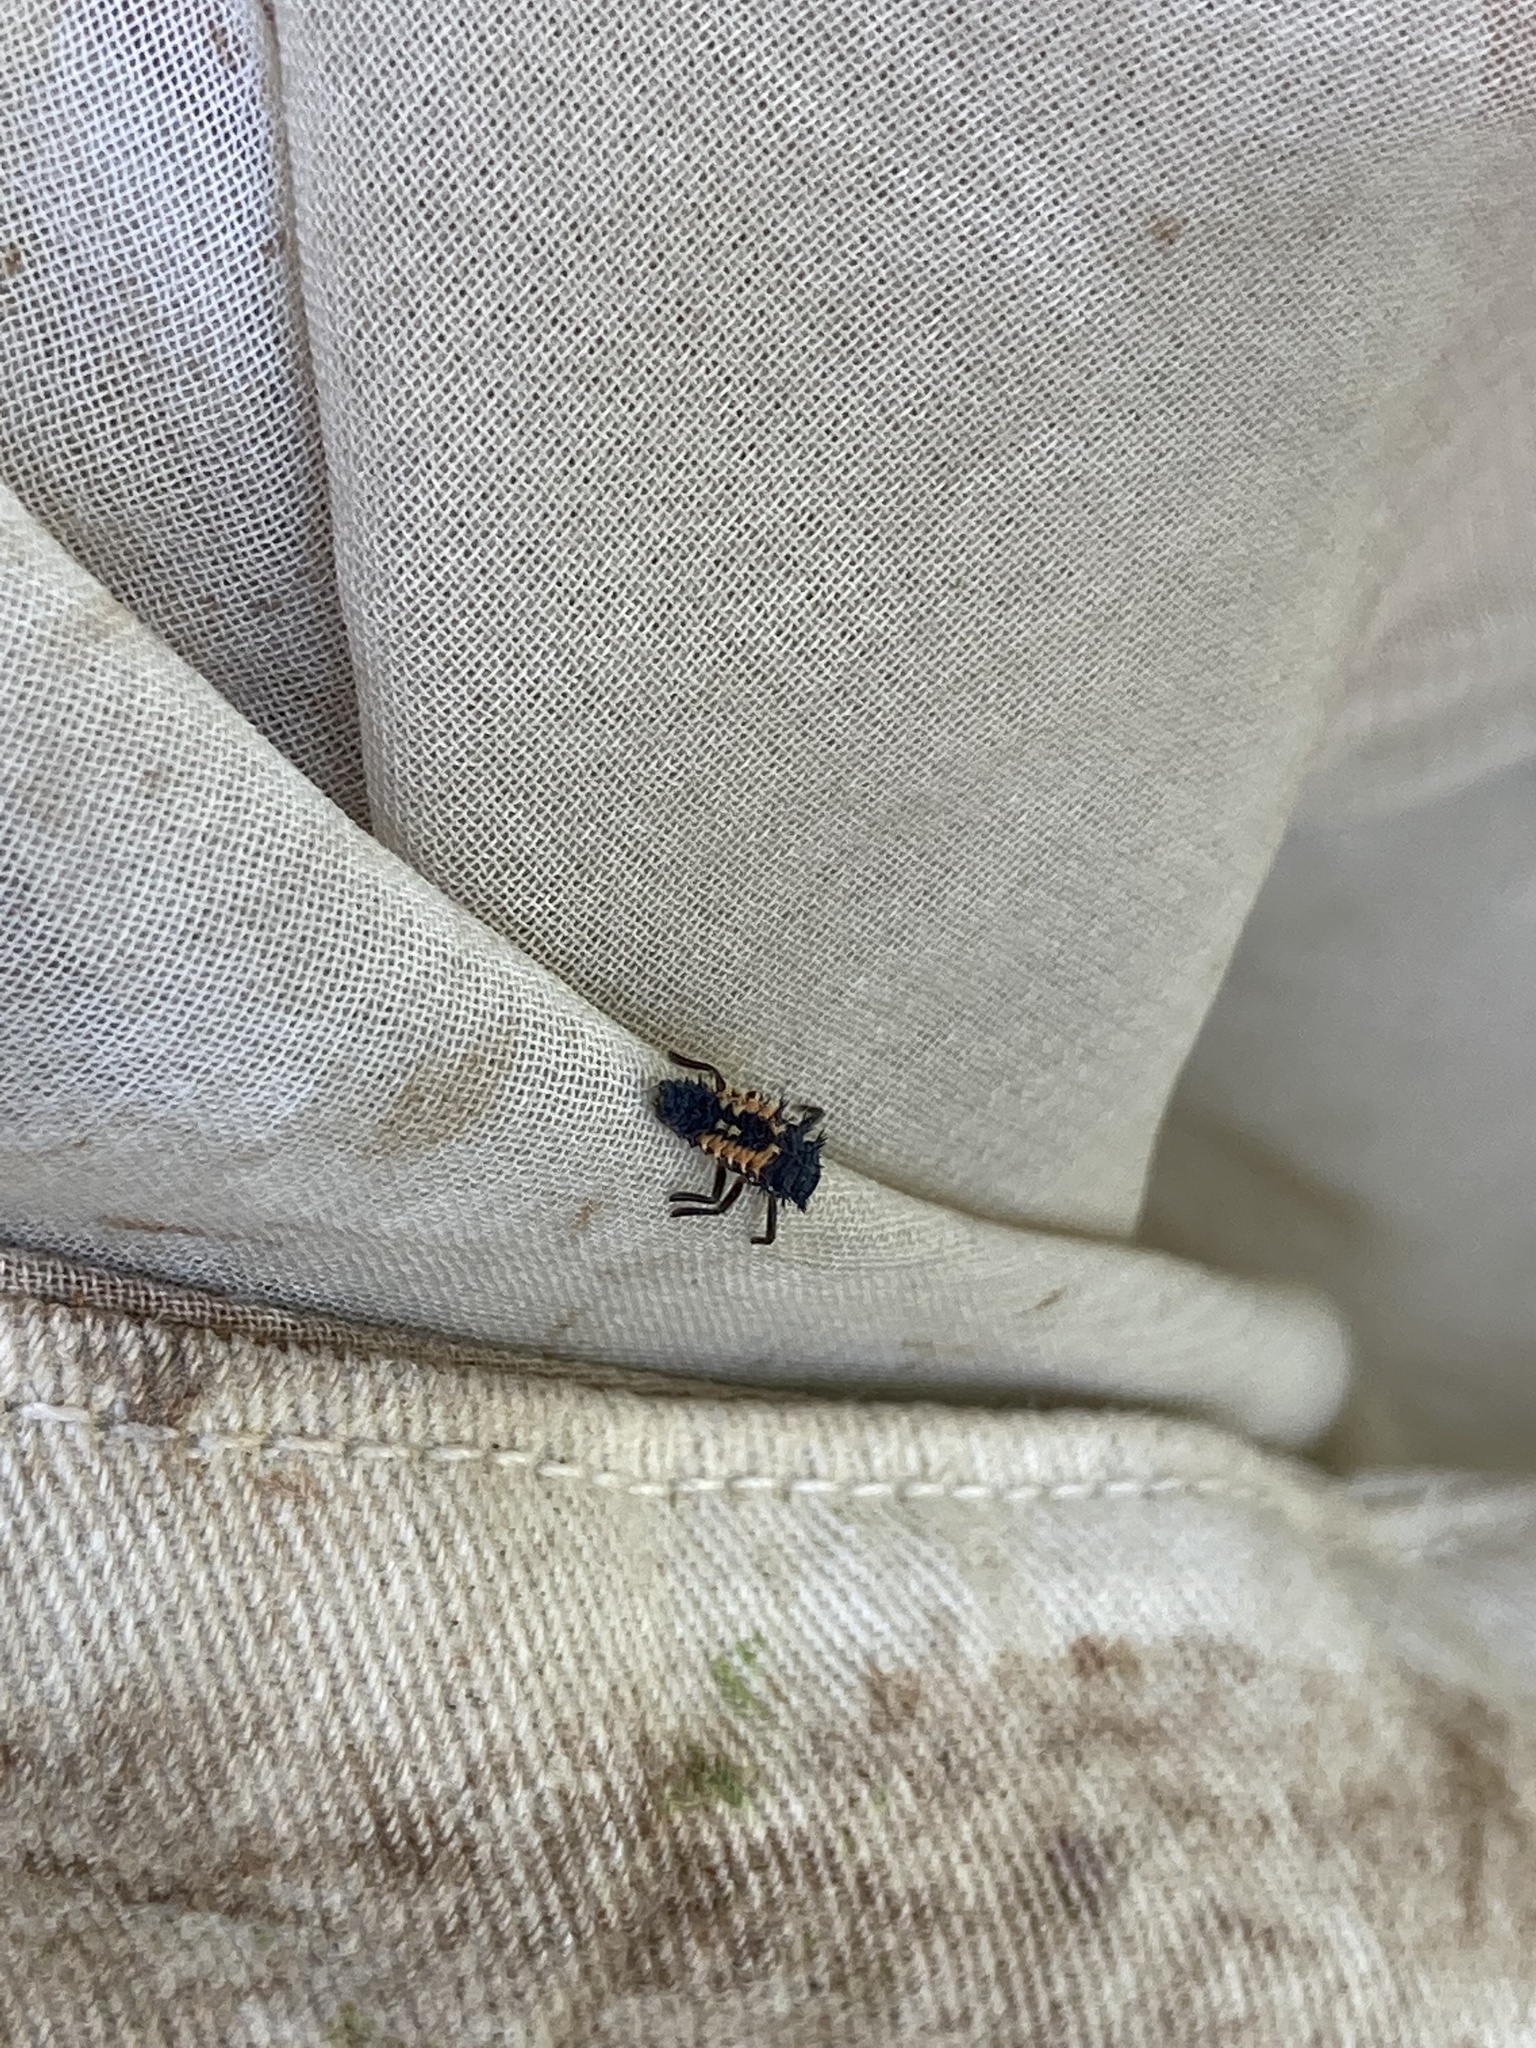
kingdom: Animalia
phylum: Arthropoda
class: Insecta
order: Coleoptera
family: Coccinellidae
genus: Harmonia
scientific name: Harmonia axyridis
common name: Harlequin ladybird
